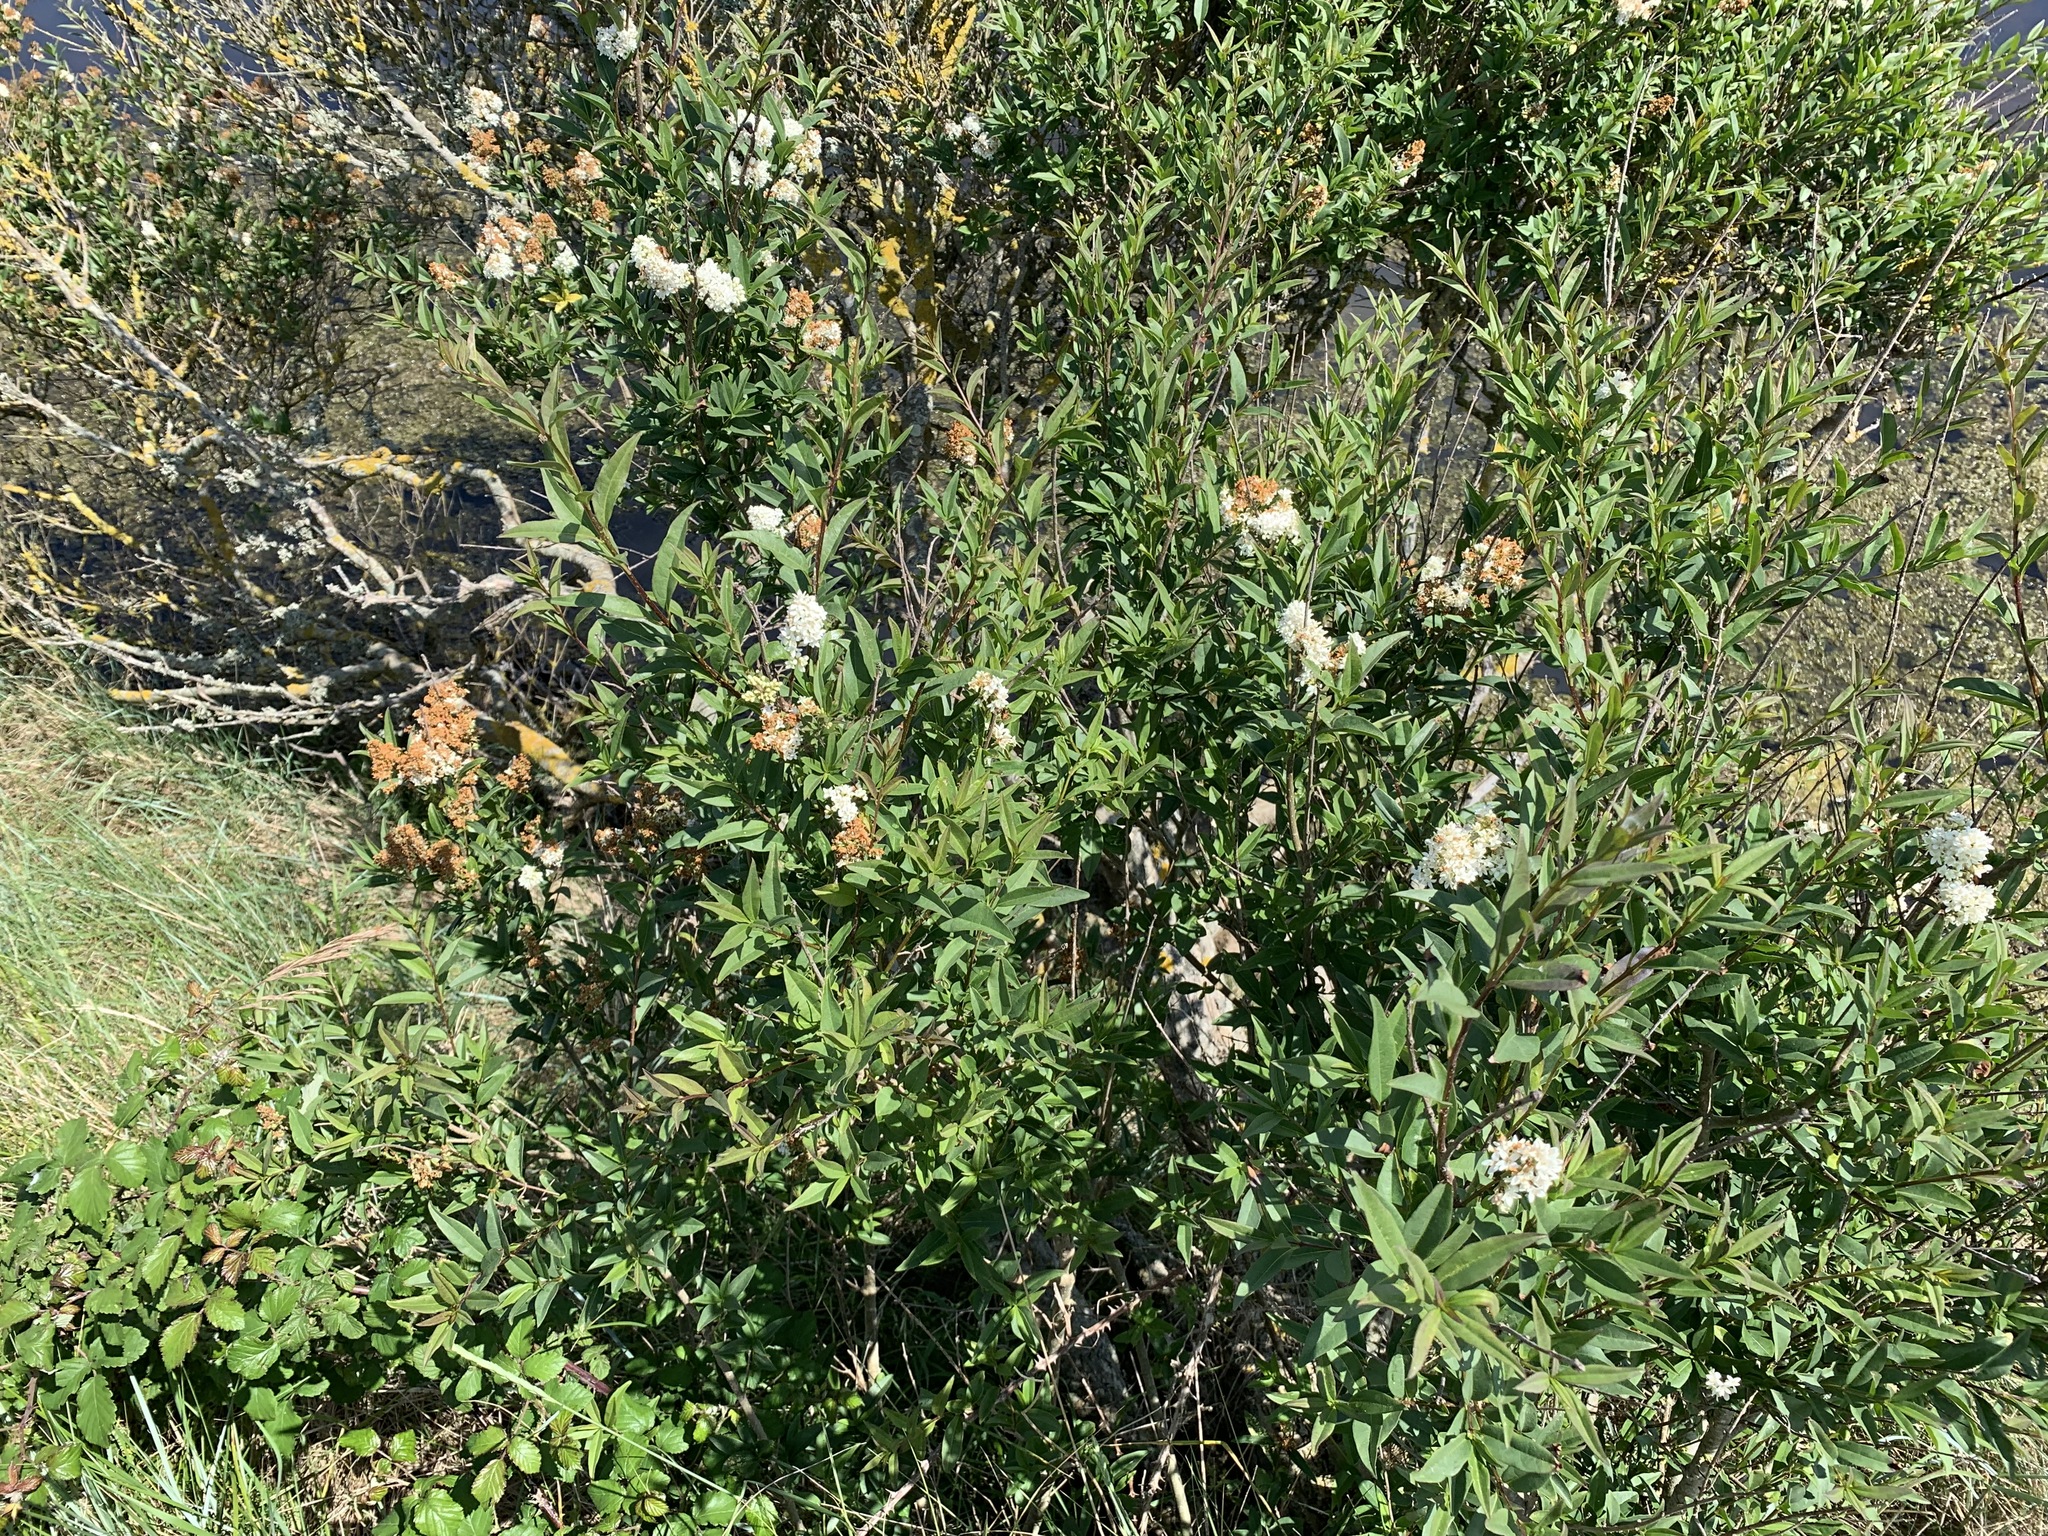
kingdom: Plantae
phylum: Tracheophyta
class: Magnoliopsida
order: Lamiales
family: Oleaceae
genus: Ligustrum
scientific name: Ligustrum vulgare
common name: Wild privet
